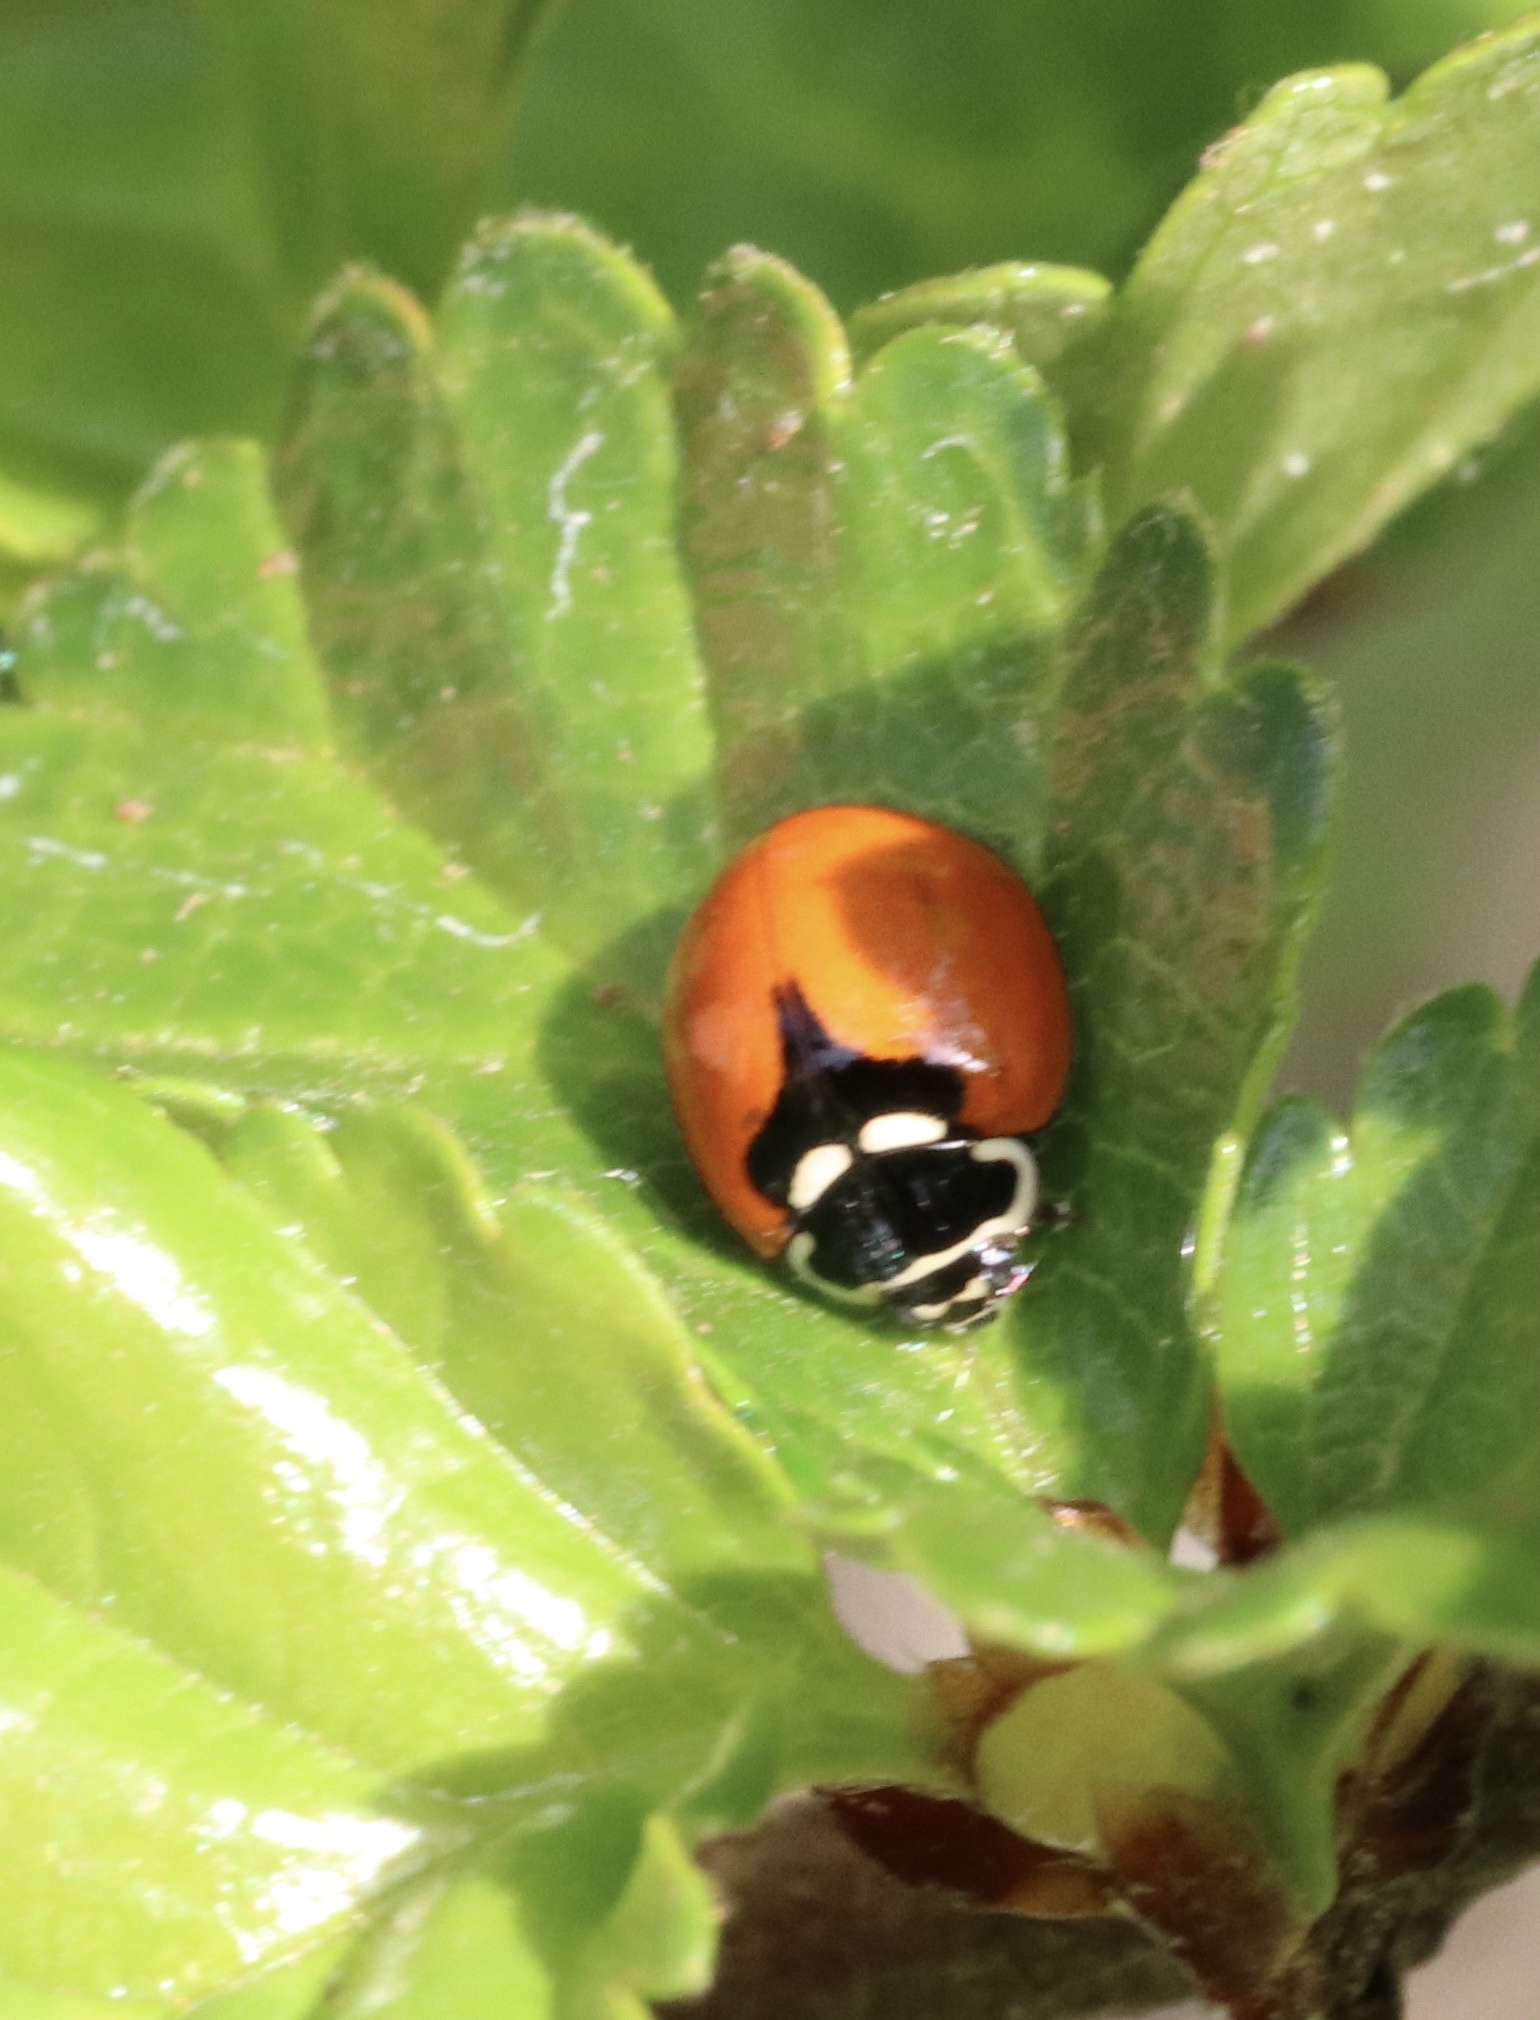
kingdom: Animalia
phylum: Arthropoda
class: Insecta
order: Coleoptera
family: Coccinellidae
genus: Adalia
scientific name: Adalia deficiens
